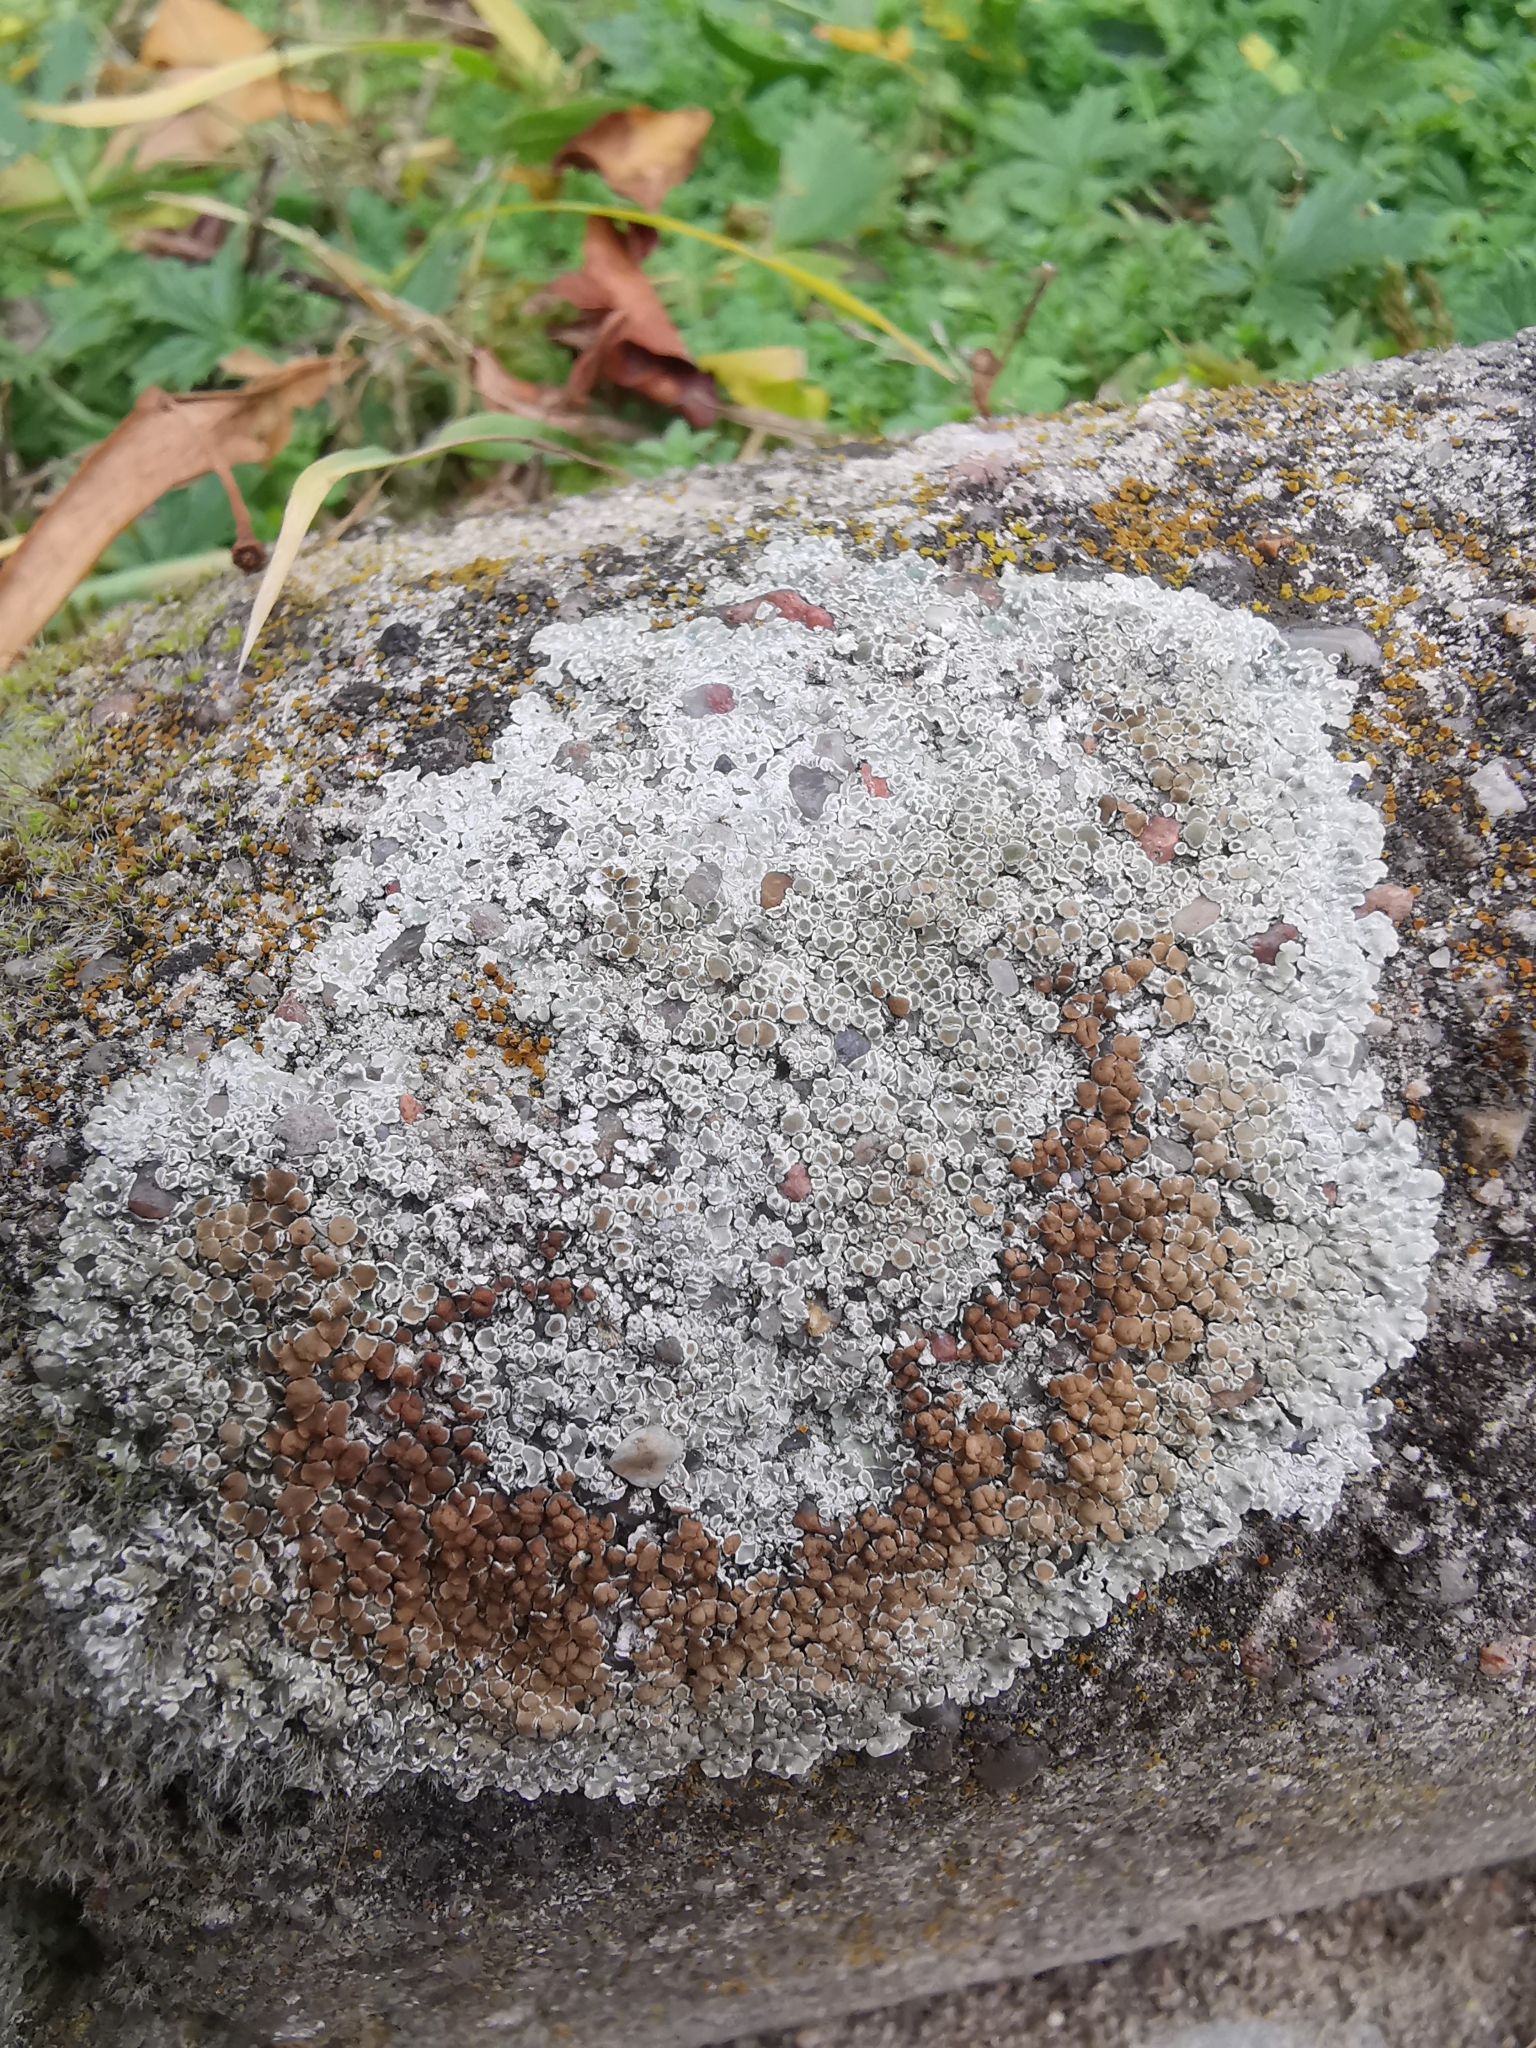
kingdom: Fungi
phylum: Ascomycota
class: Lecanoromycetes
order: Lecanorales
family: Lecanoraceae
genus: Protoparmeliopsis
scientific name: Protoparmeliopsis muralis
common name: Stonewall rim lichen
